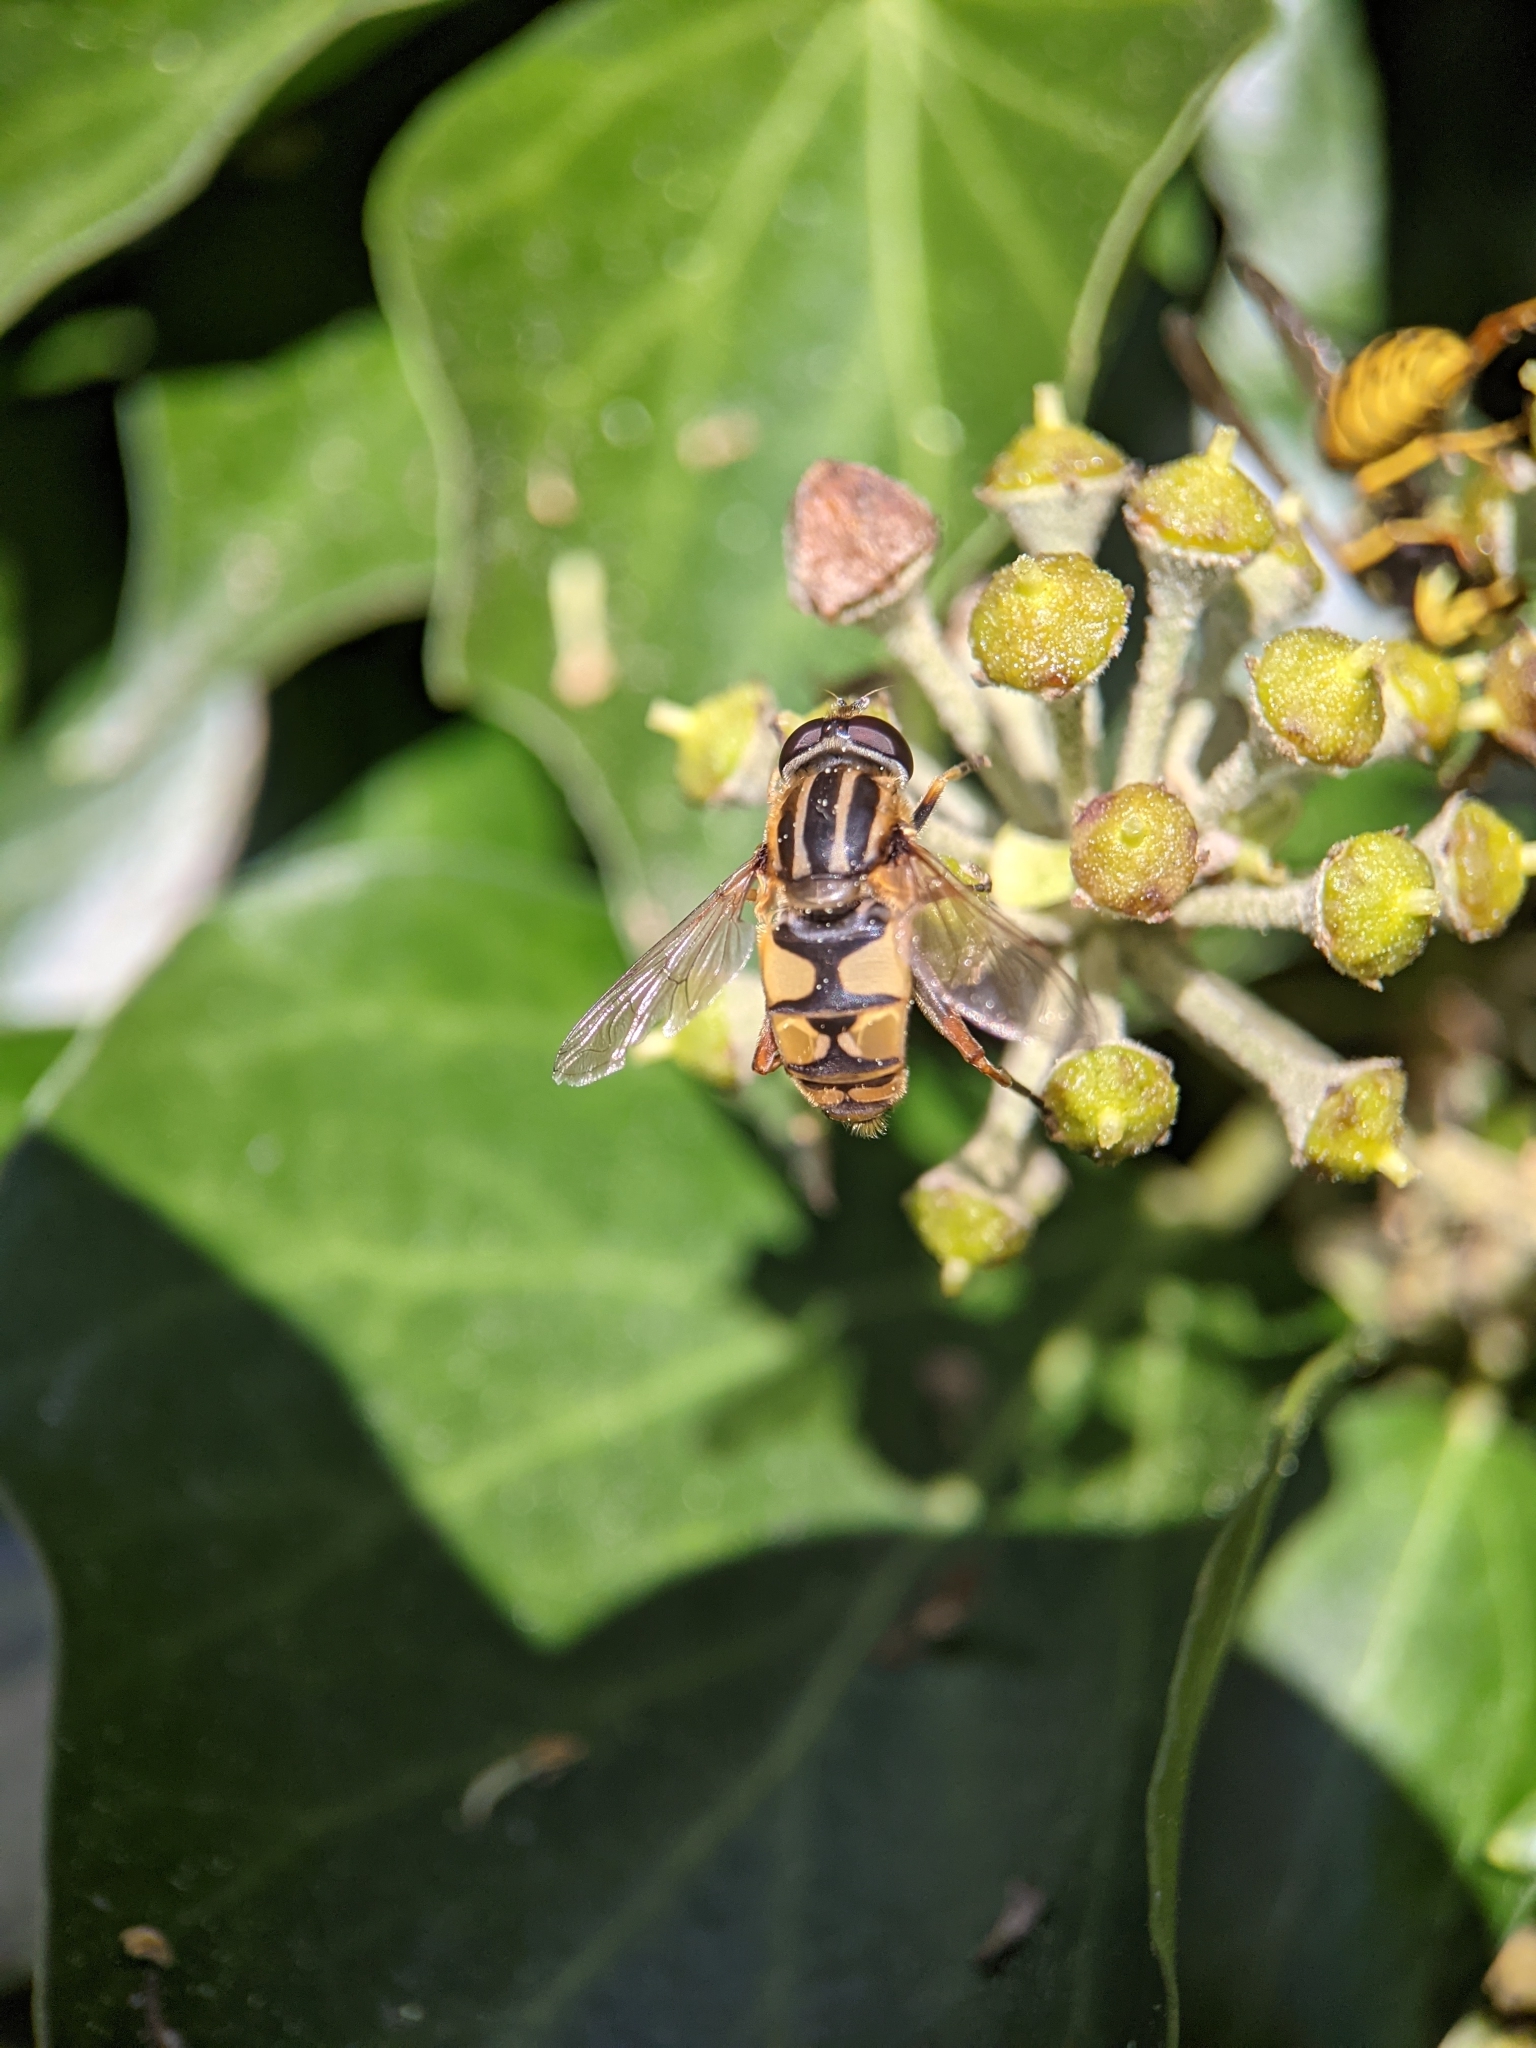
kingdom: Animalia
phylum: Arthropoda
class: Insecta
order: Diptera
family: Syrphidae
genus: Helophilus
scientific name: Helophilus pendulus
